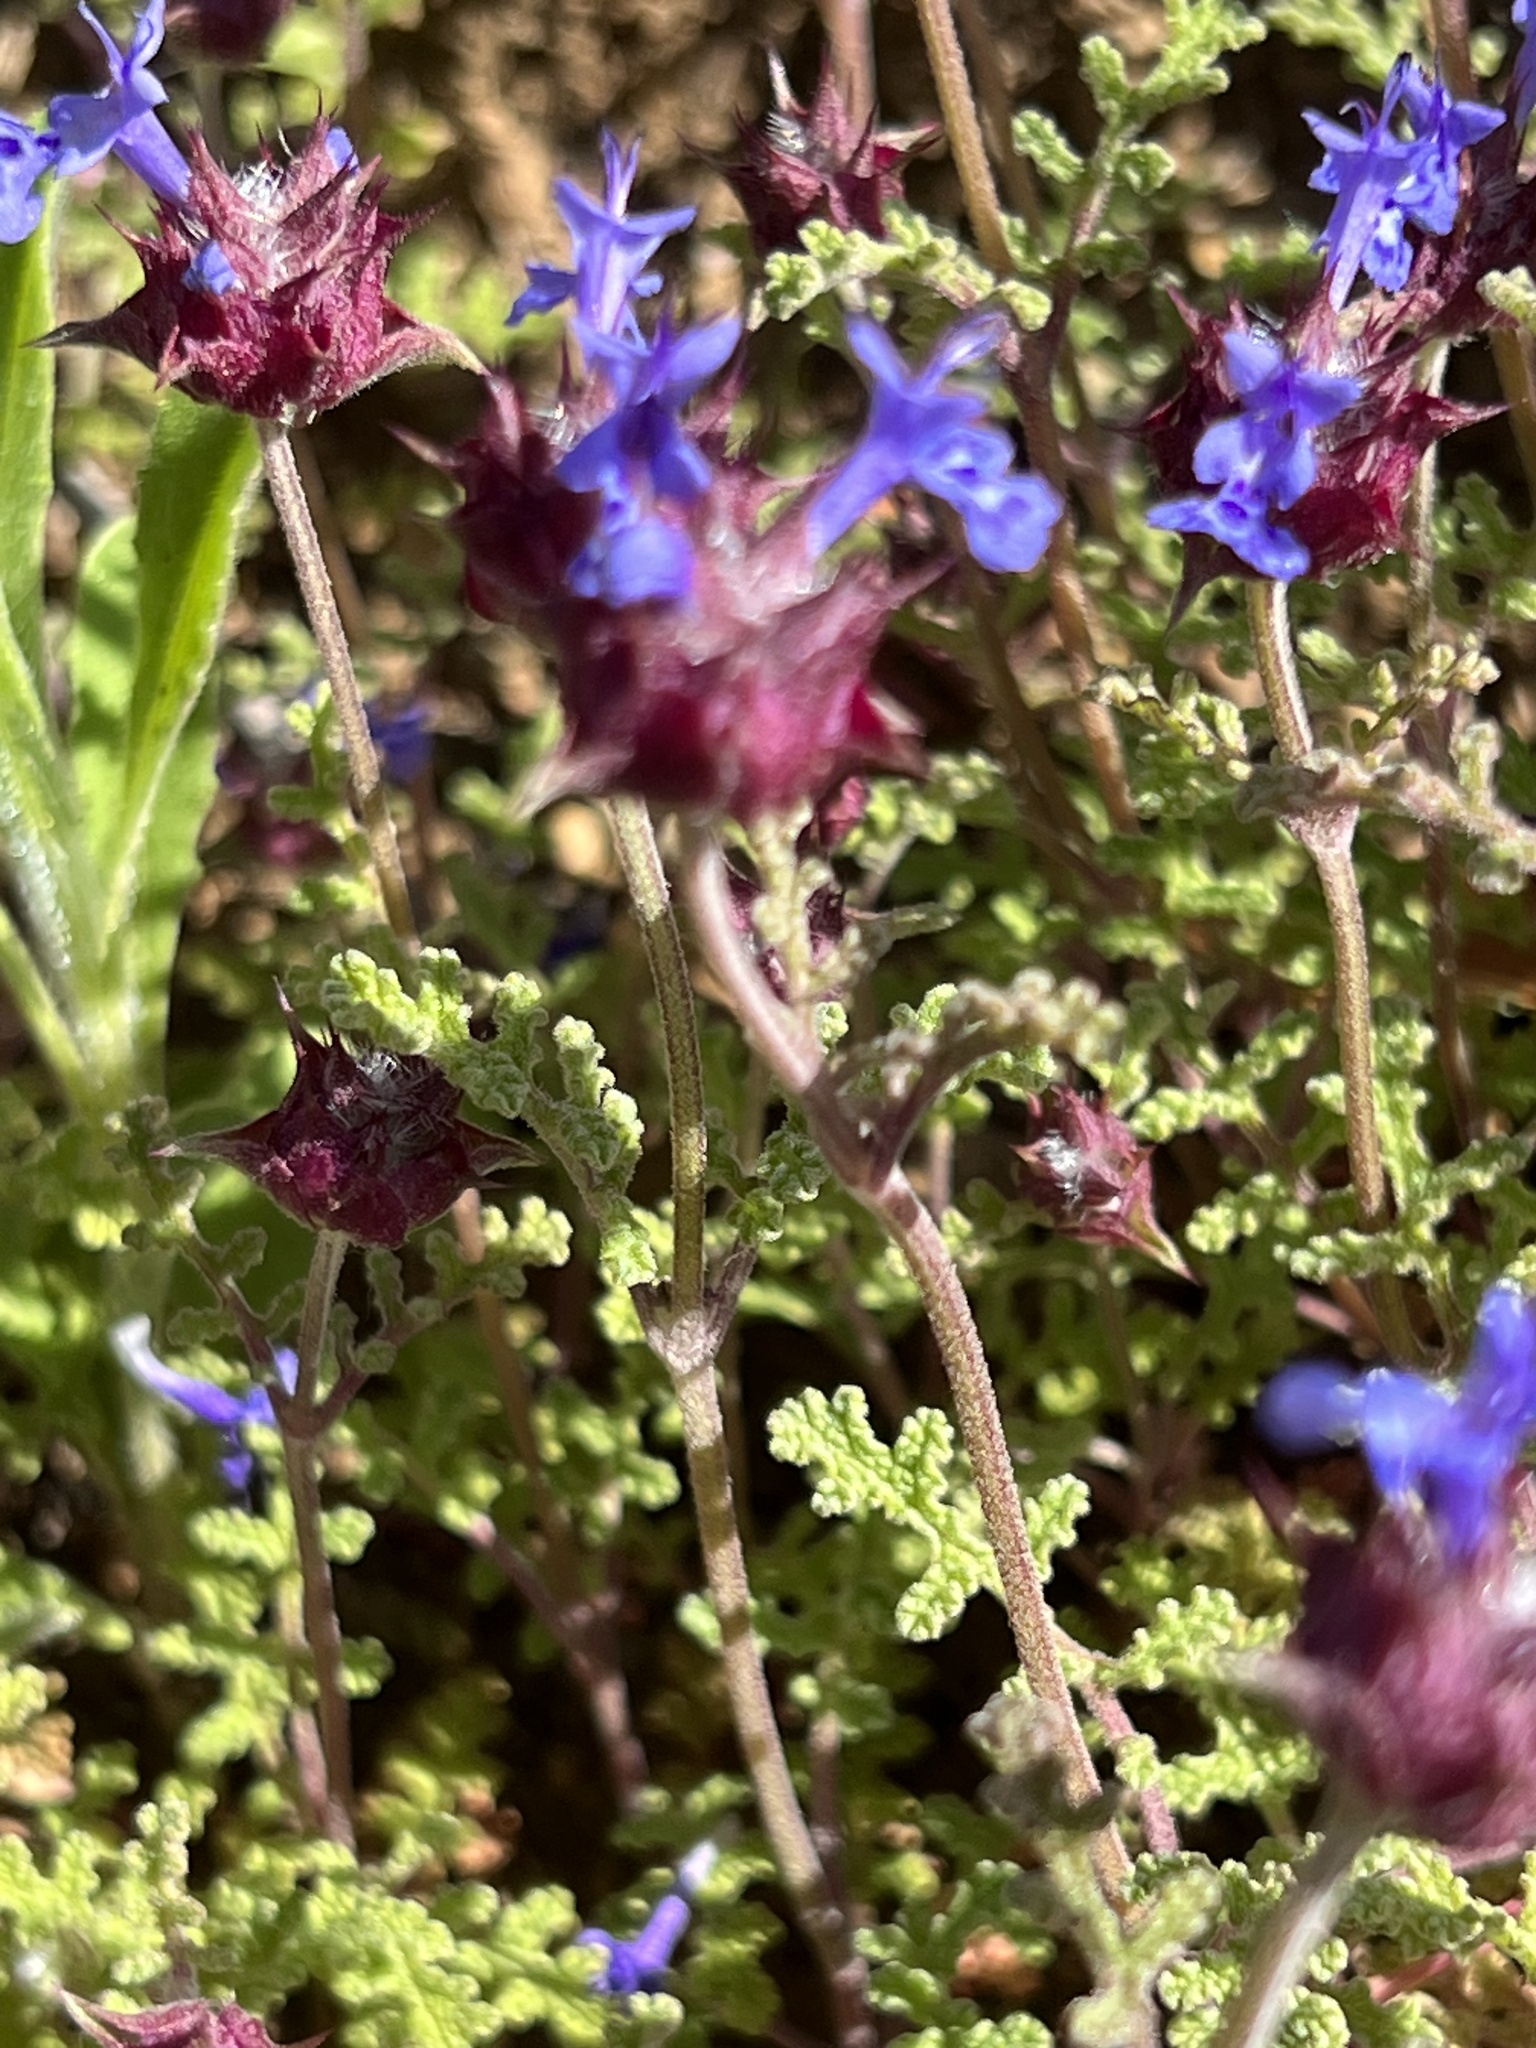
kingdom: Plantae
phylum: Tracheophyta
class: Magnoliopsida
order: Lamiales
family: Lamiaceae
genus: Salvia
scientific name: Salvia columbariae
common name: Chia
